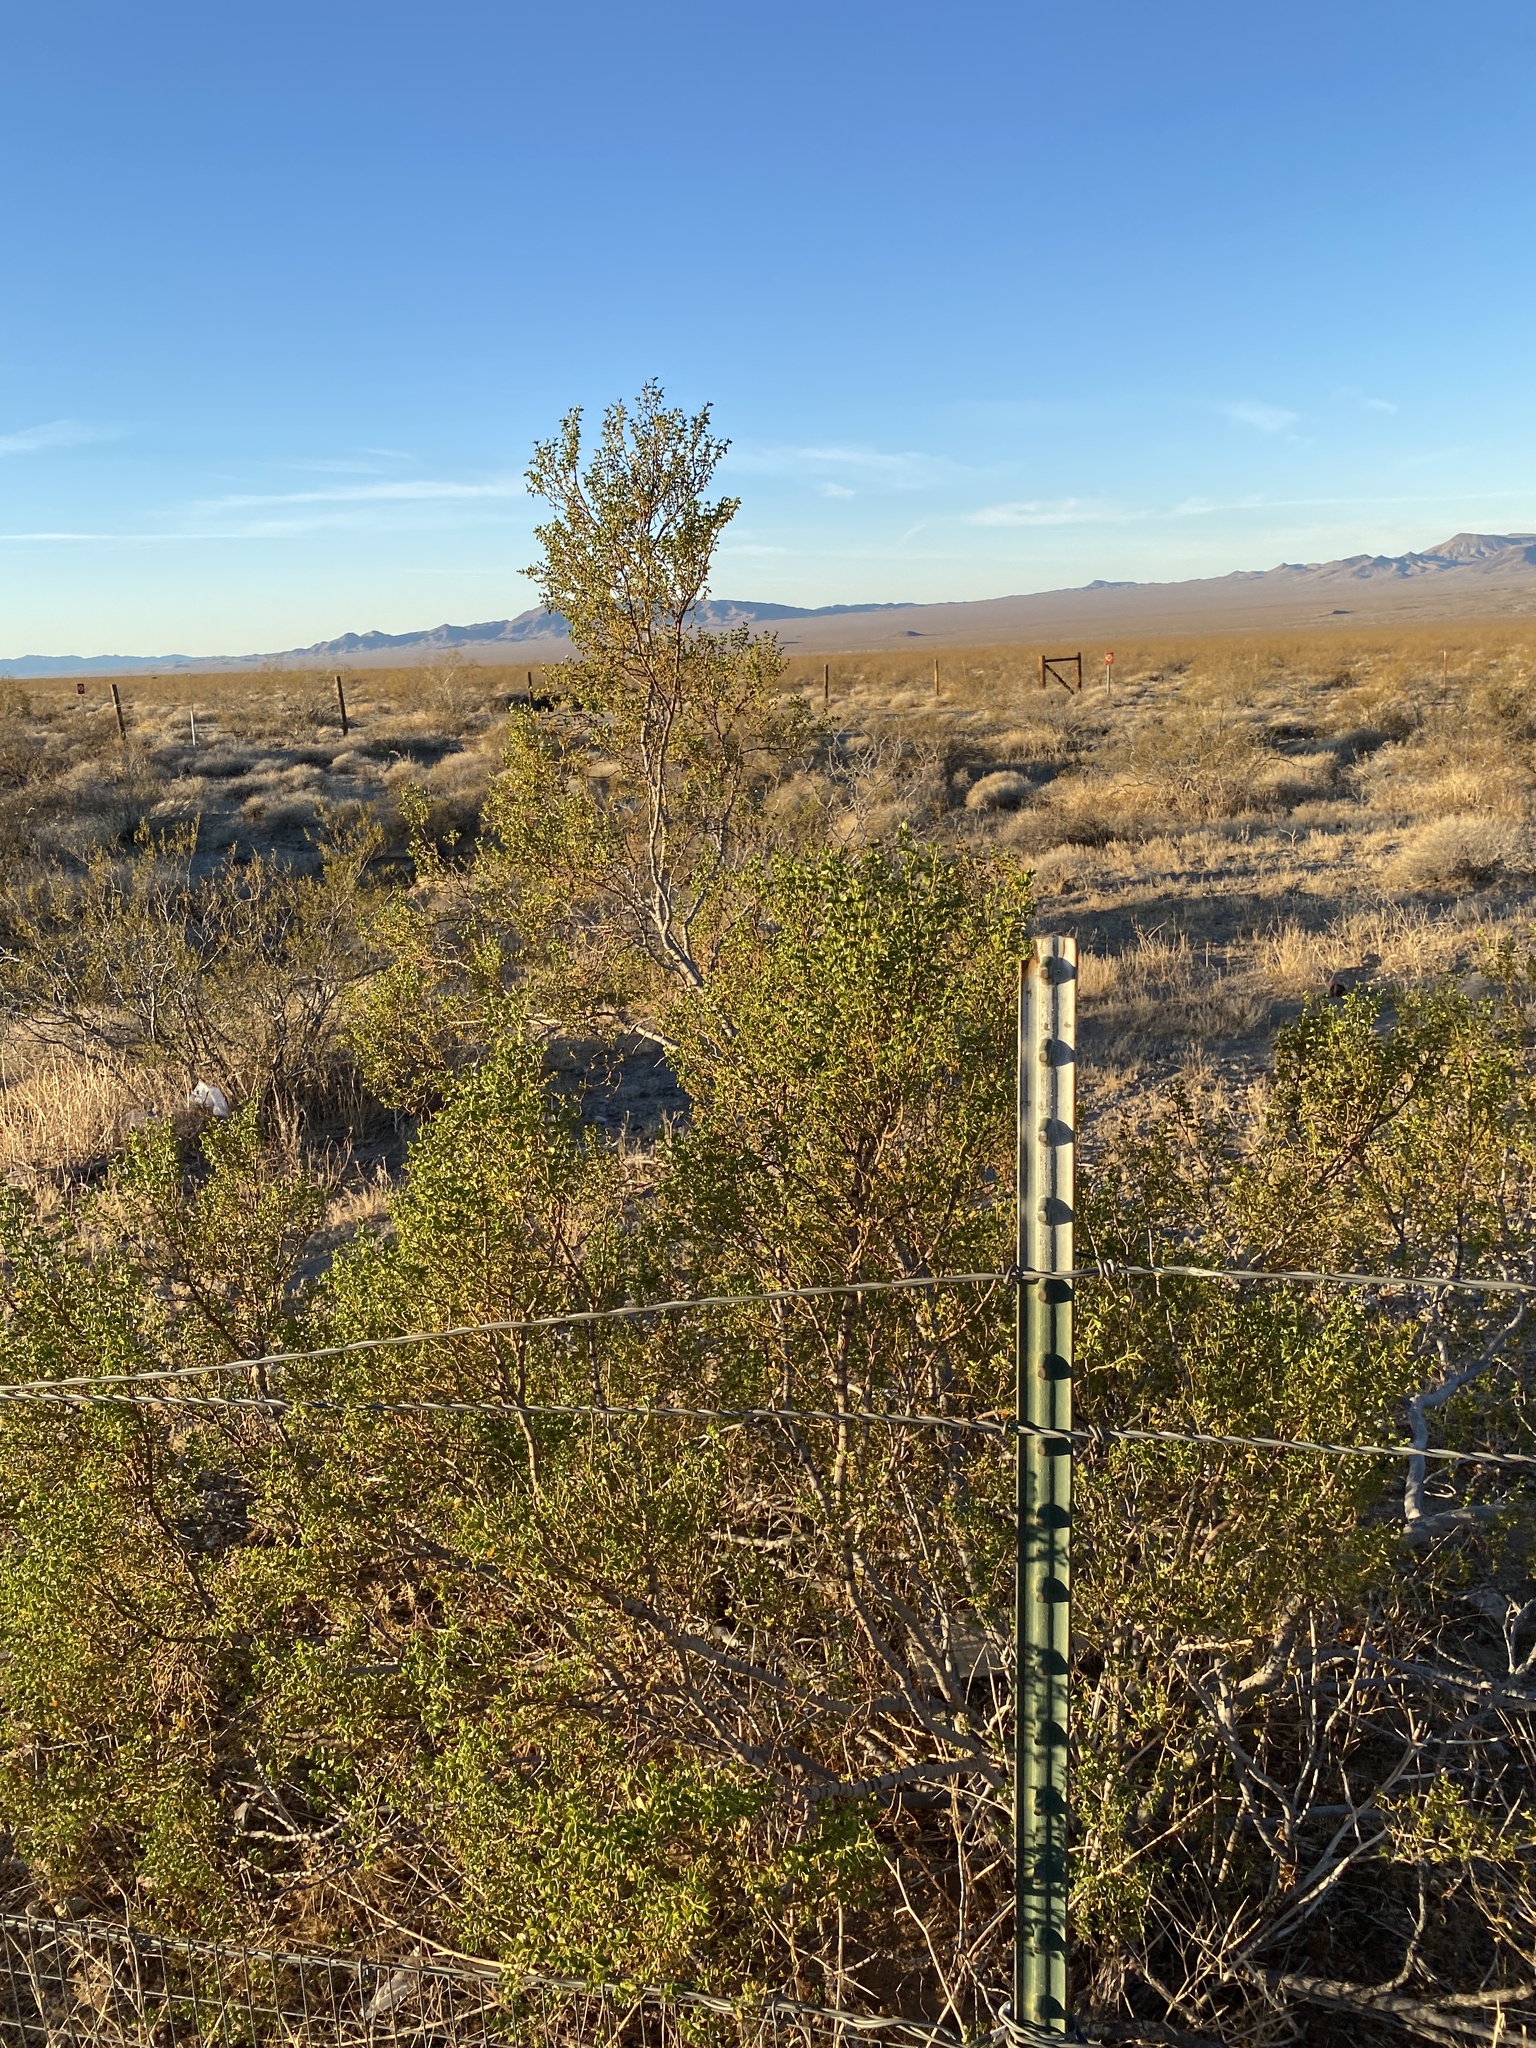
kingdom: Plantae
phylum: Tracheophyta
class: Magnoliopsida
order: Zygophyllales
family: Zygophyllaceae
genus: Larrea
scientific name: Larrea tridentata
